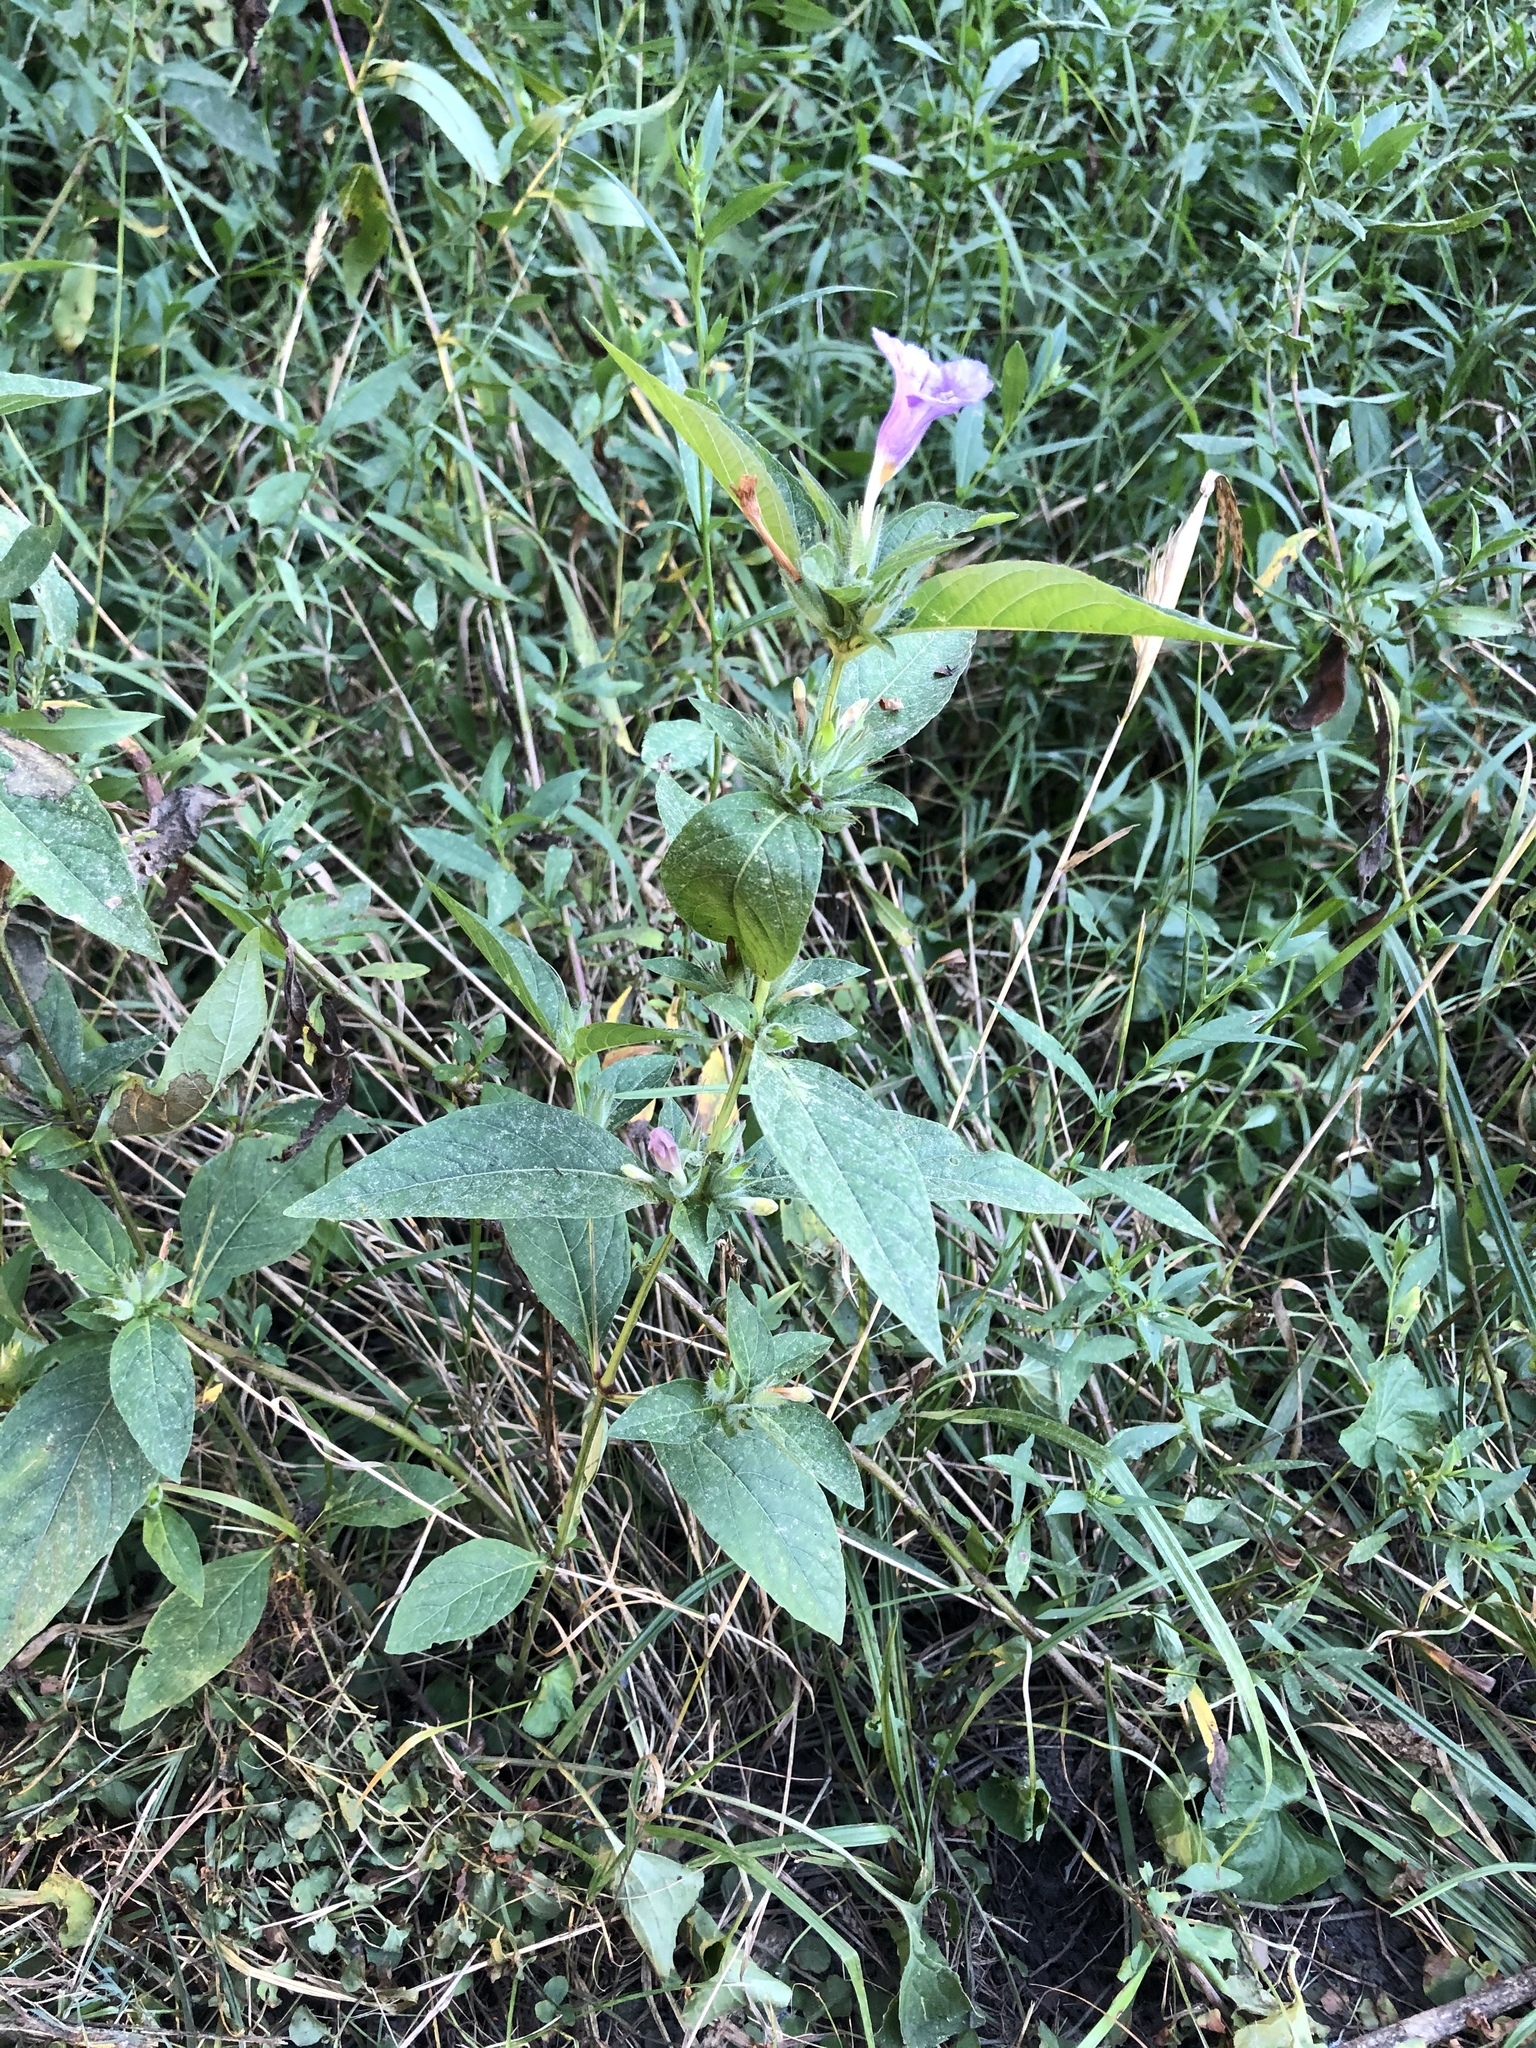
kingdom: Plantae
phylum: Tracheophyta
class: Magnoliopsida
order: Lamiales
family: Acanthaceae
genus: Ruellia
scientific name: Ruellia strepens
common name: Limestone wild petunia
